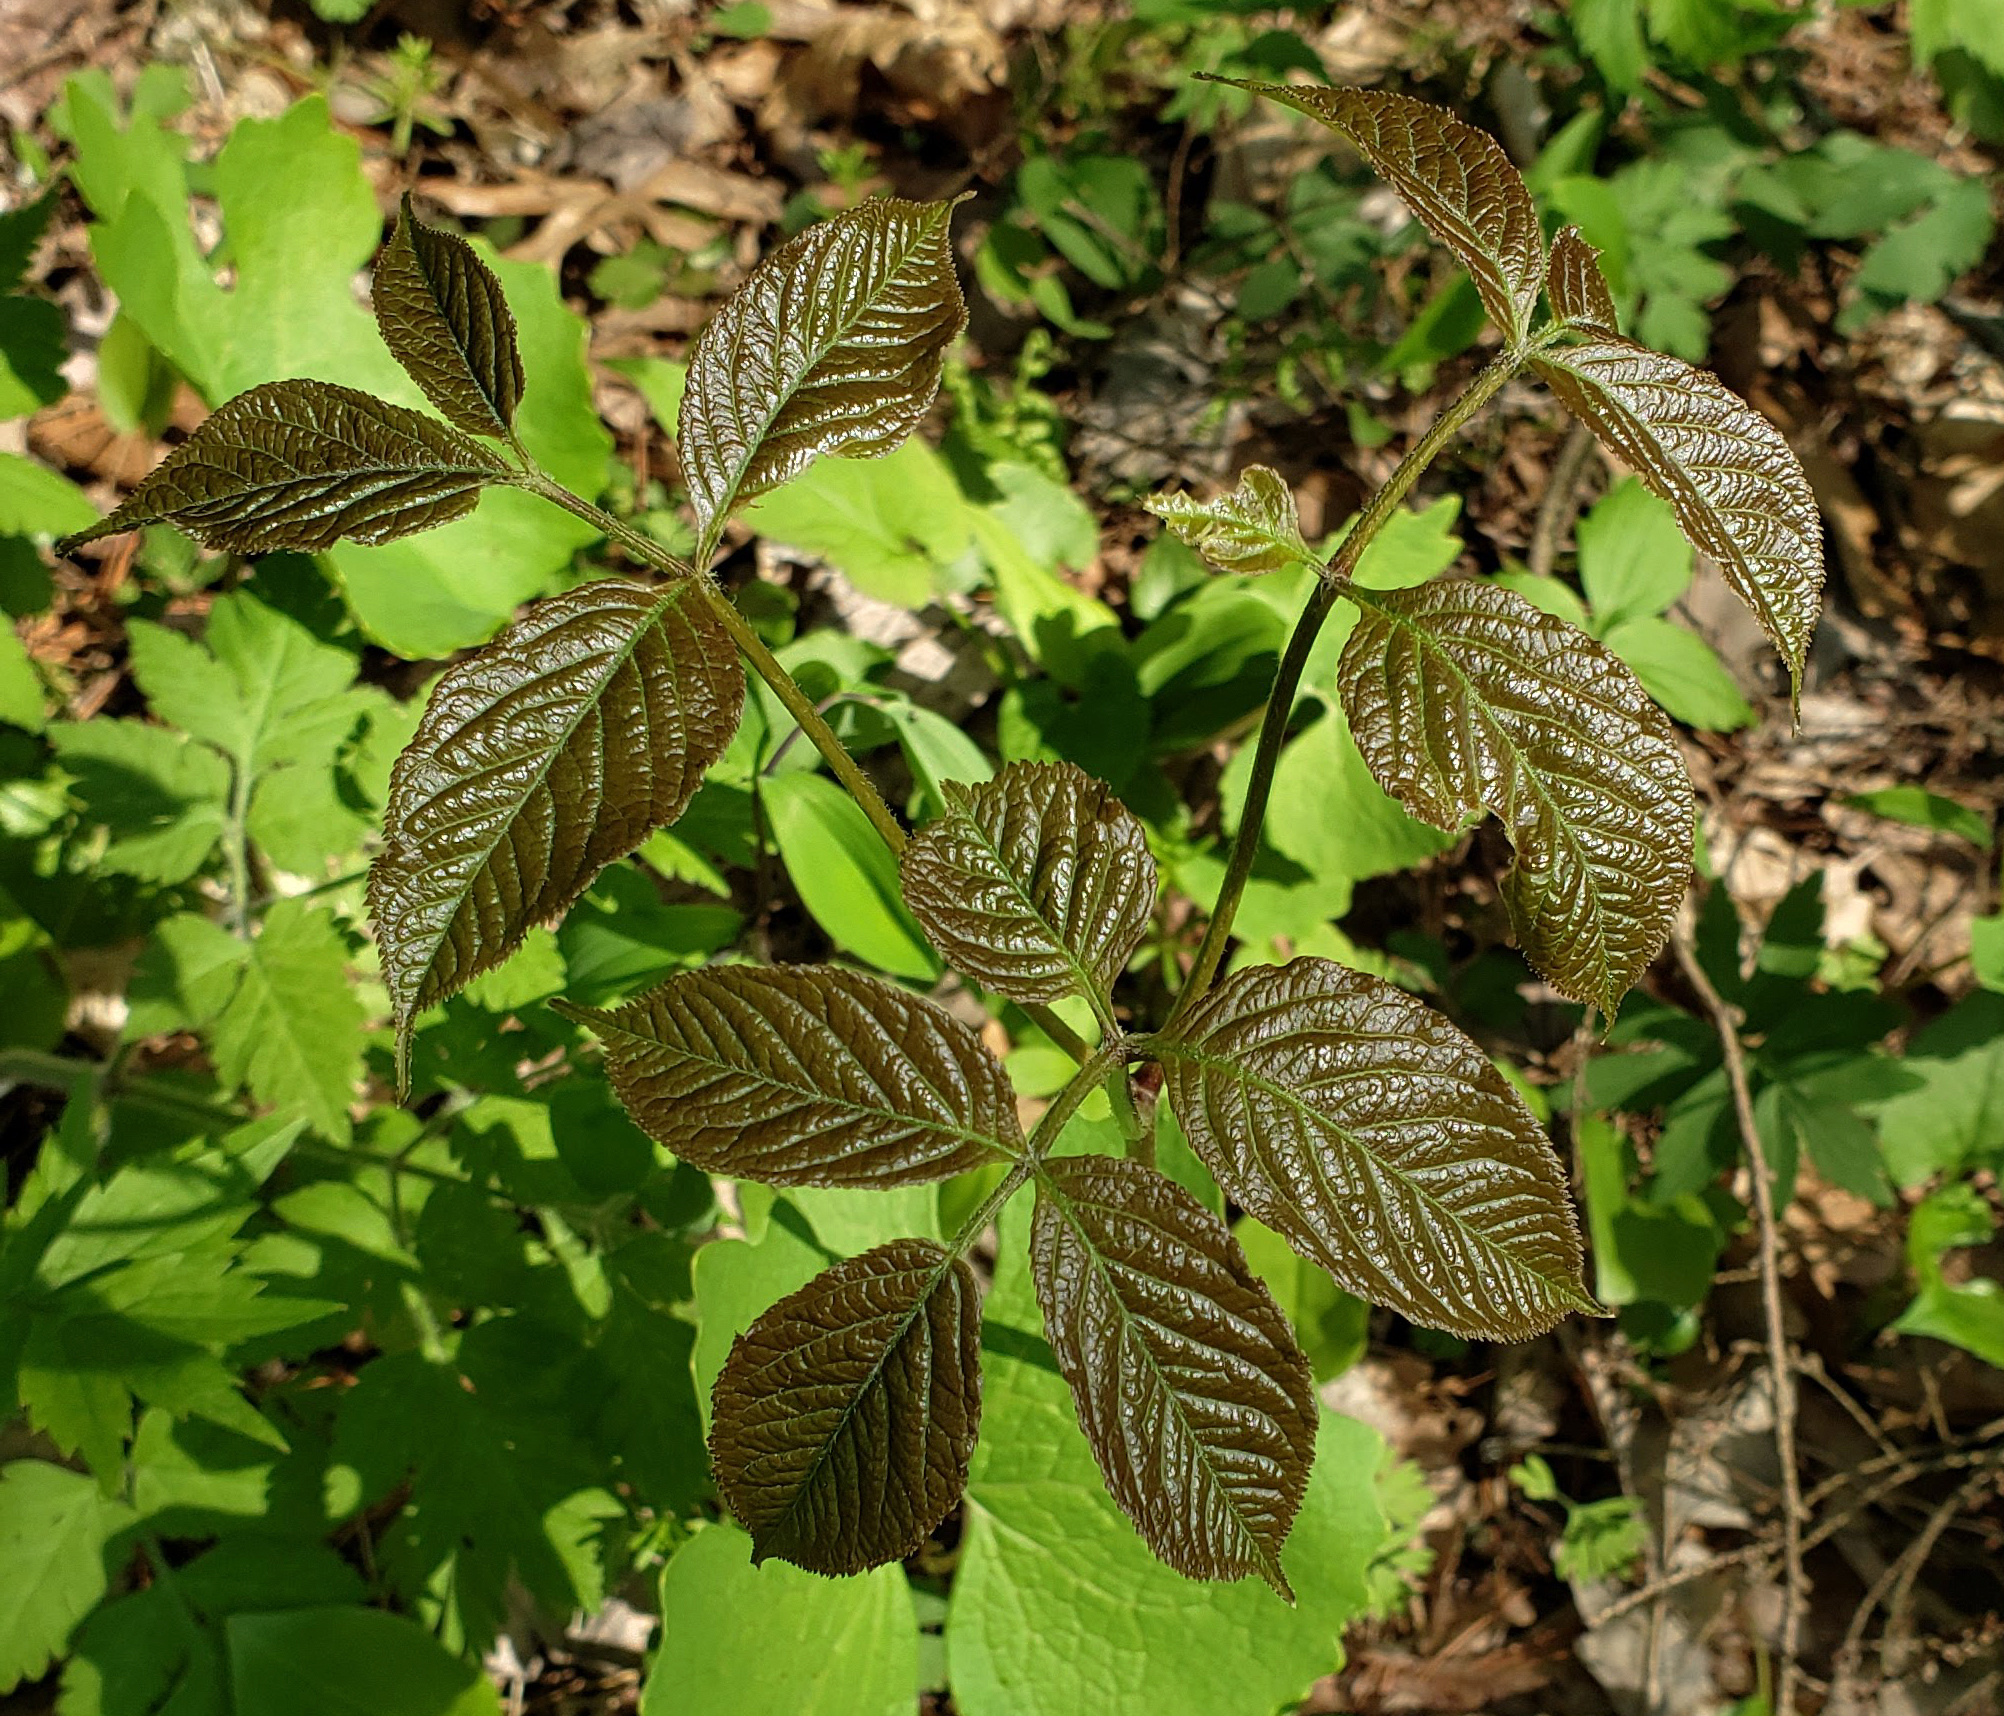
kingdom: Plantae
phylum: Tracheophyta
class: Magnoliopsida
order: Apiales
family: Araliaceae
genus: Aralia
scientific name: Aralia nudicaulis
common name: Wild sarsaparilla
